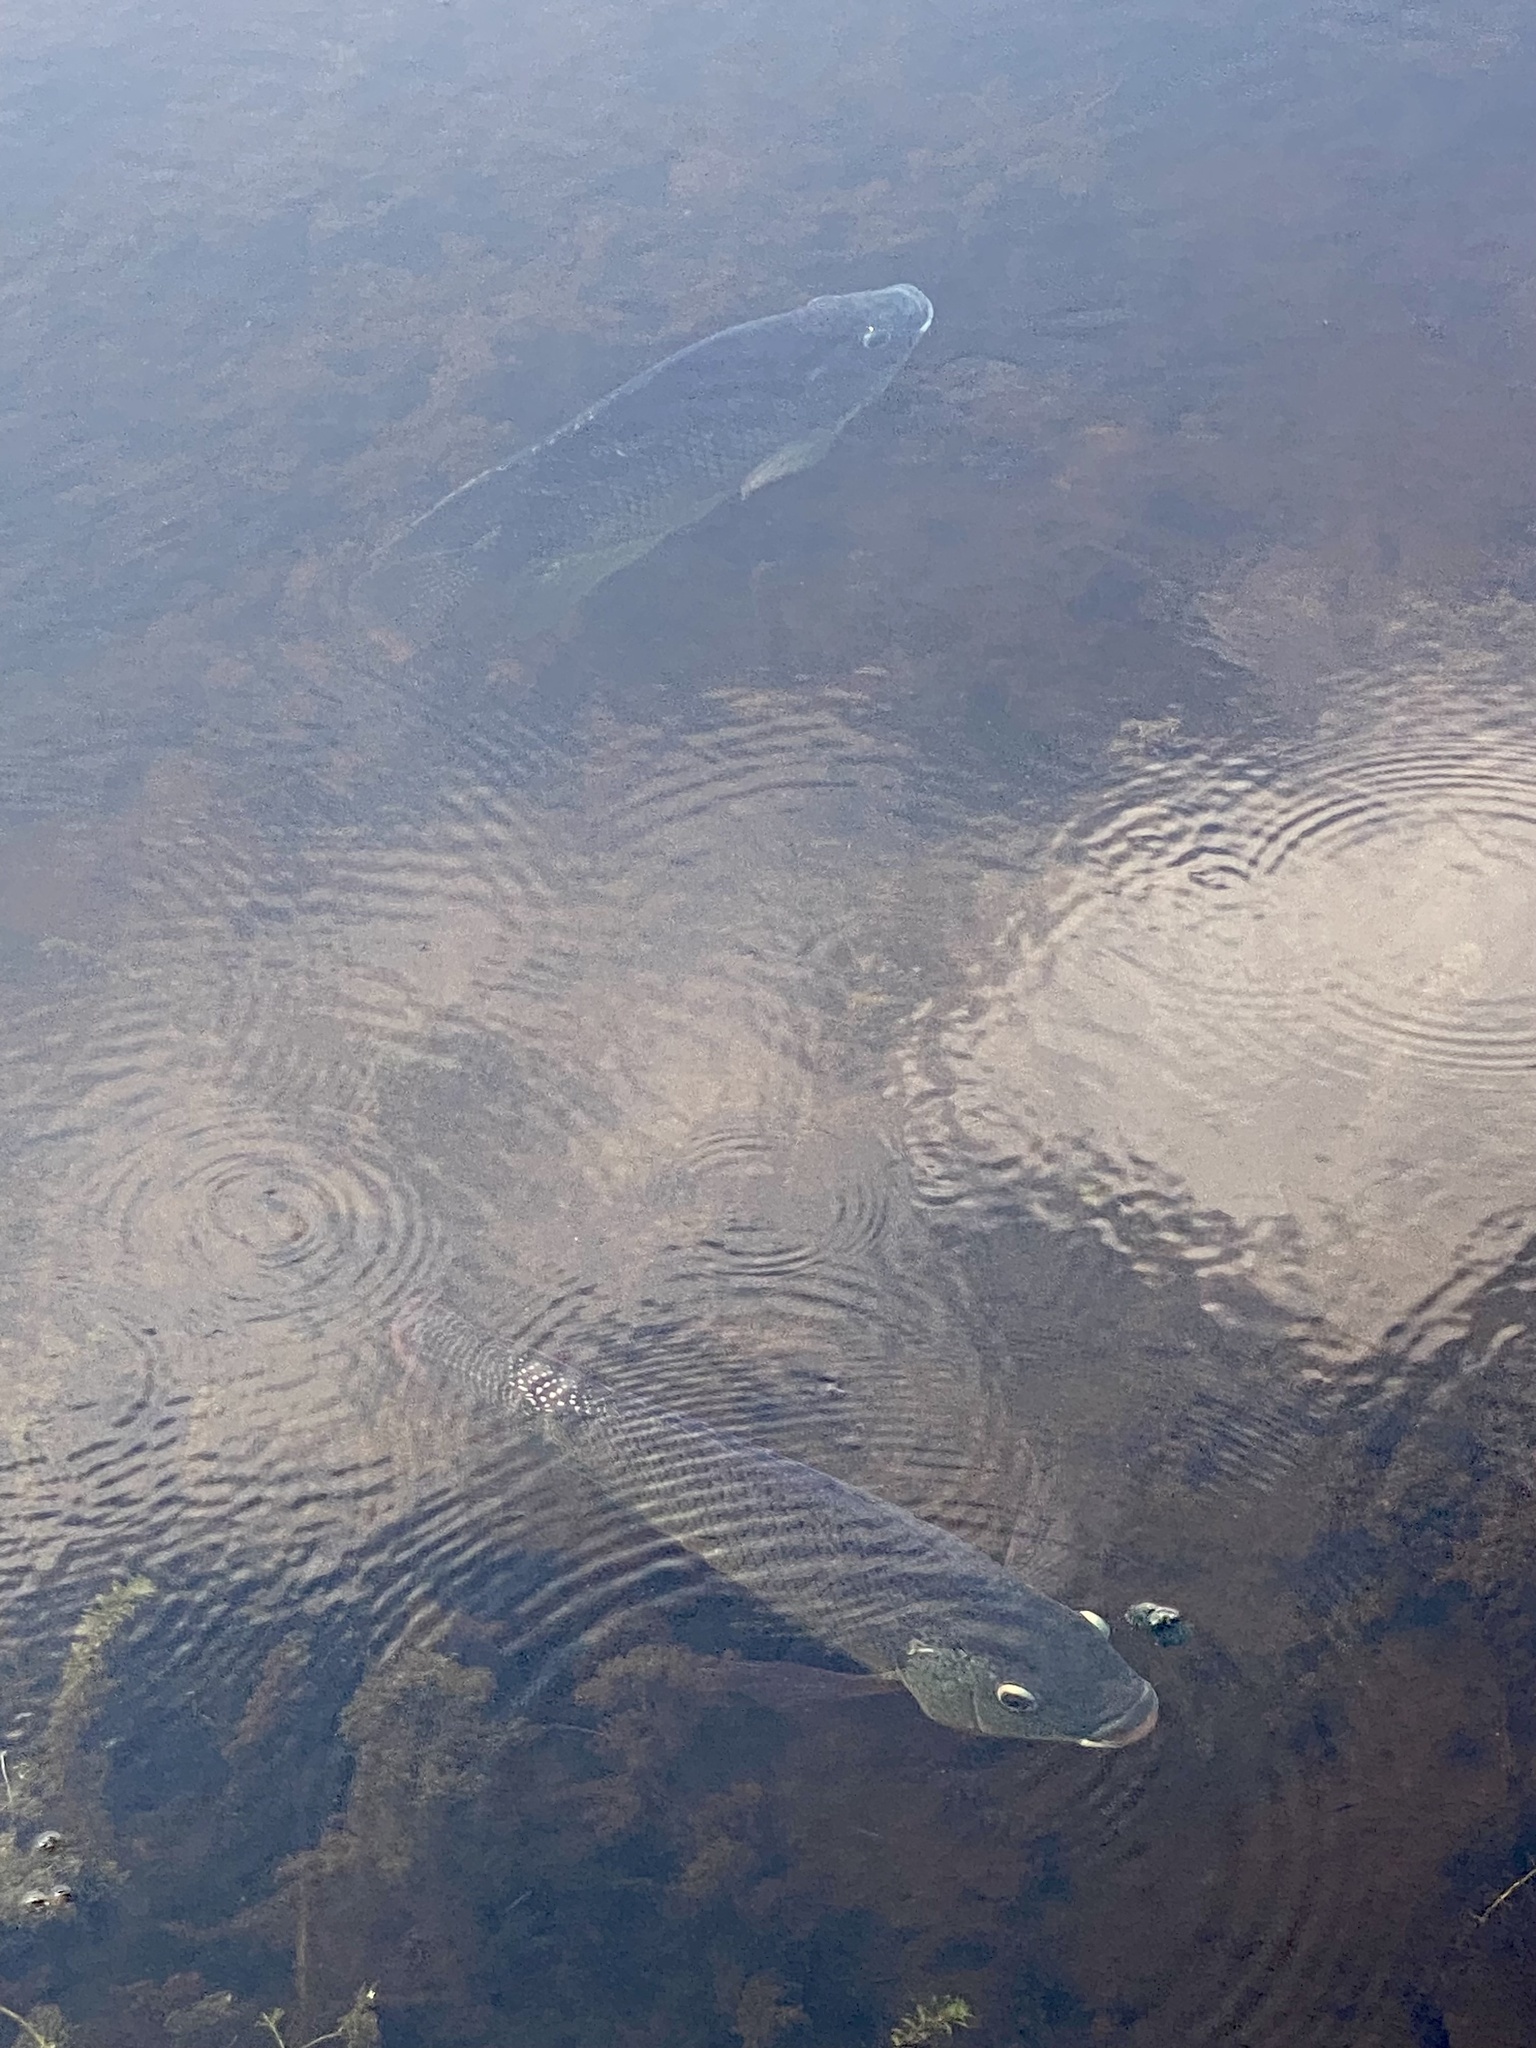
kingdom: Animalia
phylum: Chordata
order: Perciformes
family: Cichlidae
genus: Oreochromis
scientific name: Oreochromis aureus
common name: Blue tilapia
